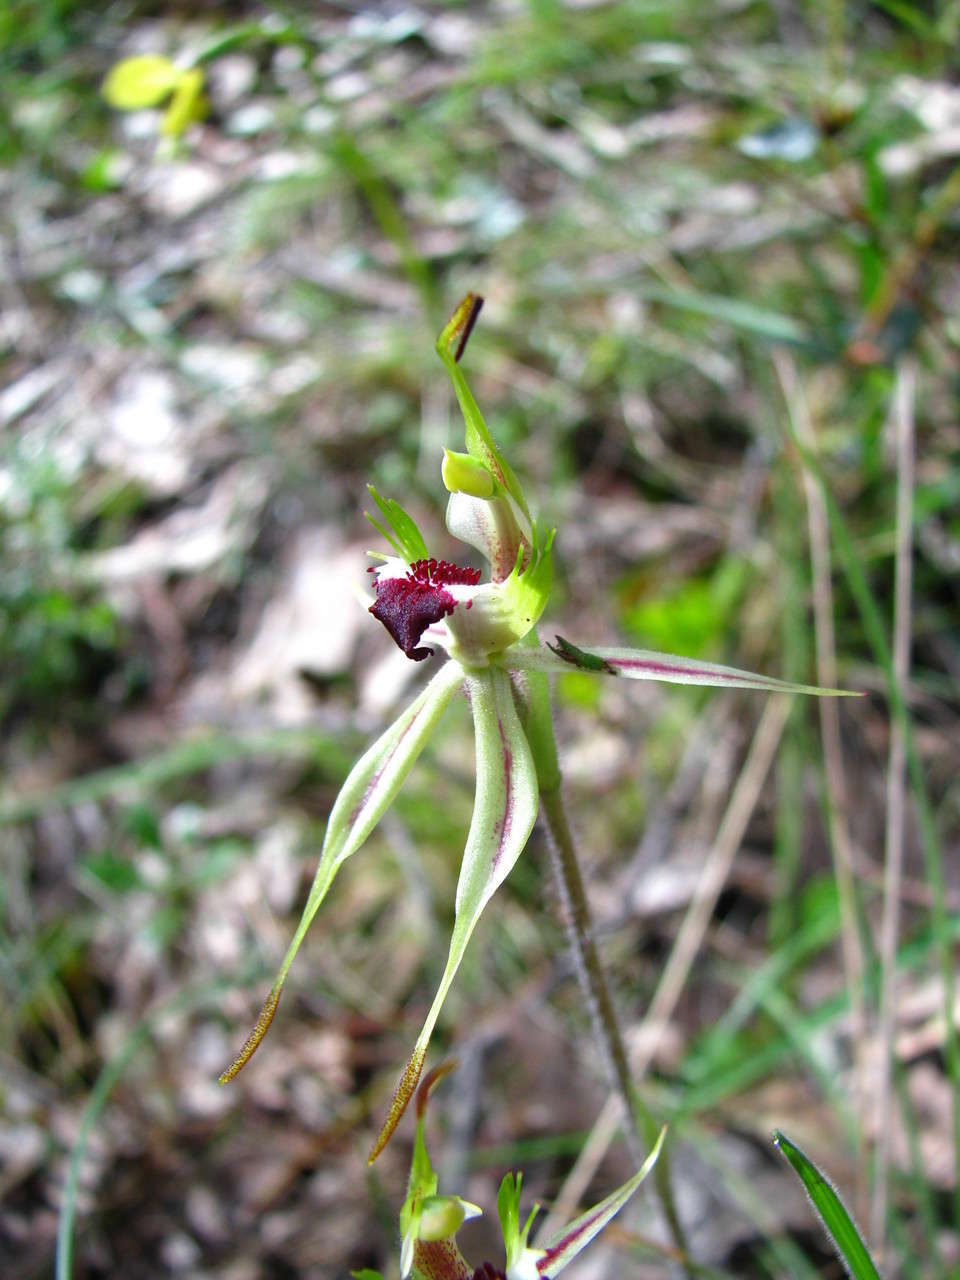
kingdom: Plantae
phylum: Tracheophyta
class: Liliopsida
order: Asparagales
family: Orchidaceae
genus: Caladenia
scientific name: Caladenia parva
